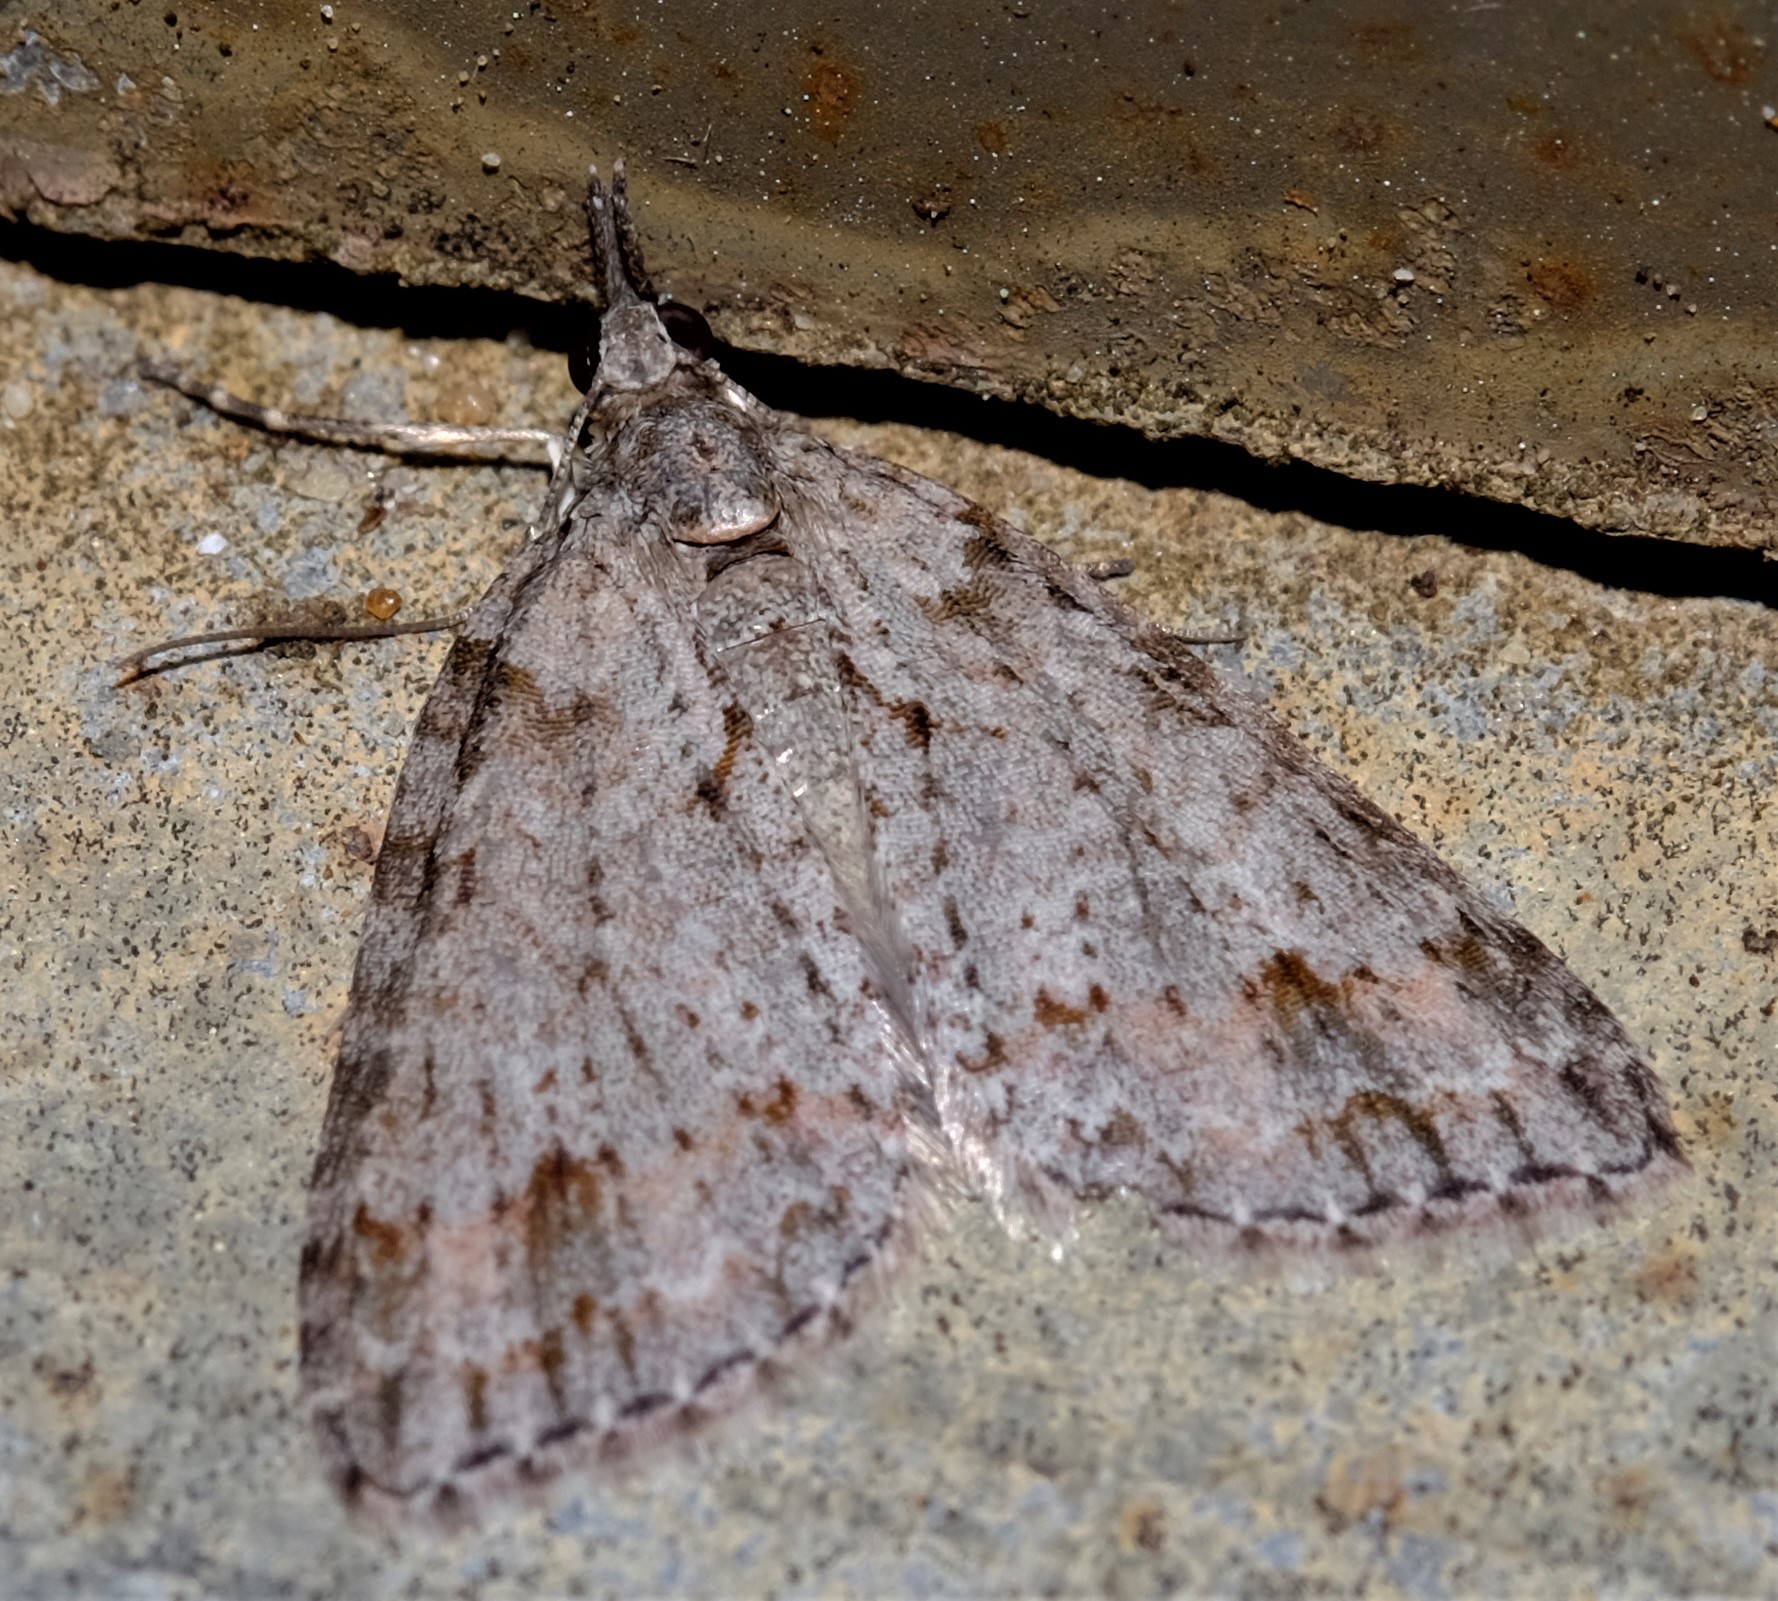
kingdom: Animalia
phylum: Arthropoda
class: Insecta
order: Lepidoptera
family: Geometridae
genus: Microdes
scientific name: Microdes villosata
